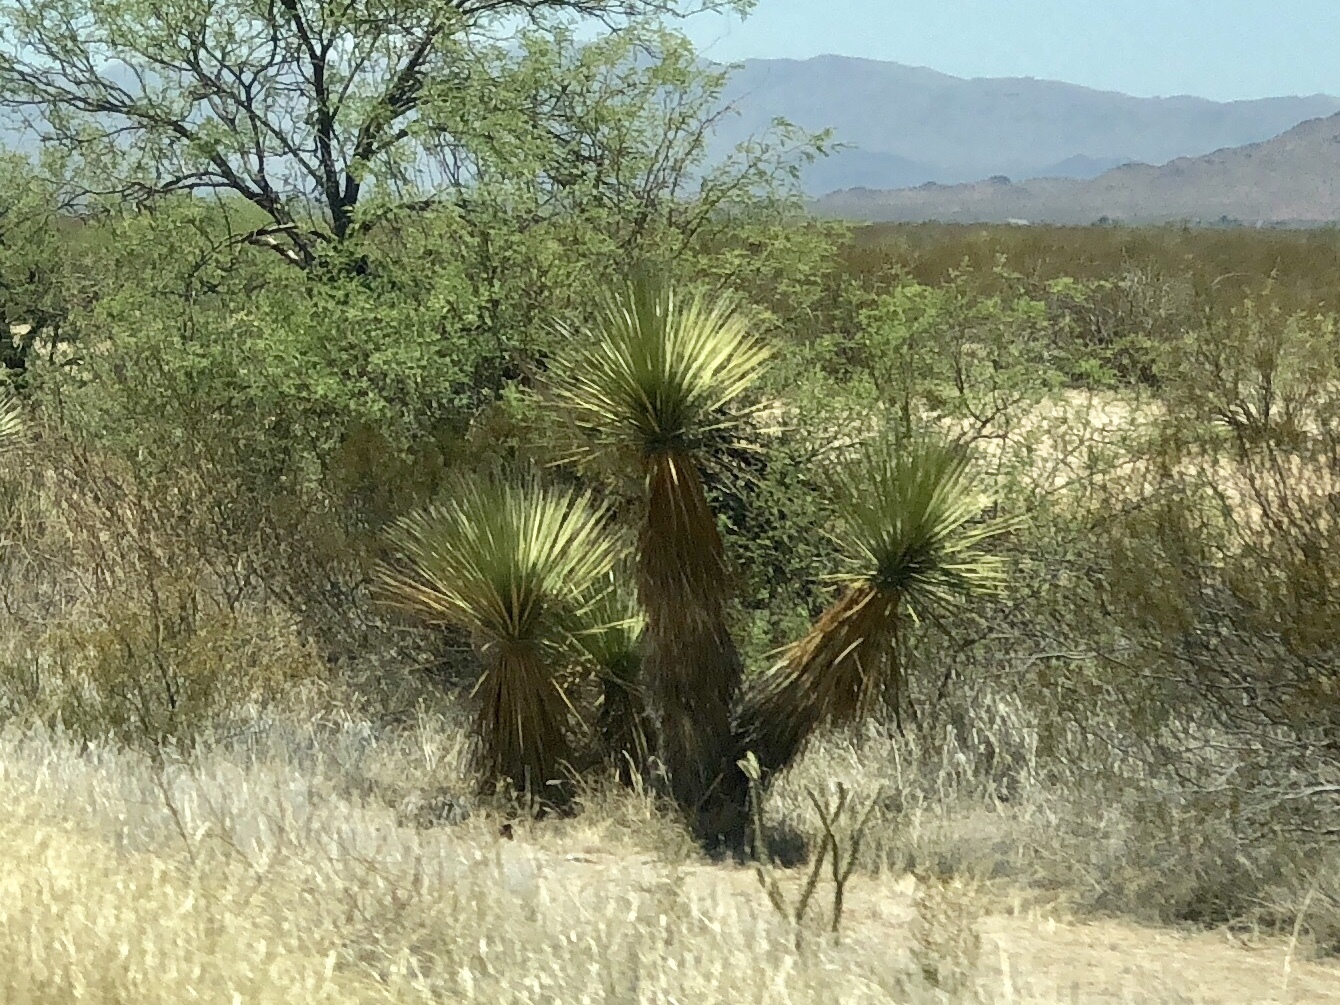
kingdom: Plantae
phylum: Tracheophyta
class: Liliopsida
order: Asparagales
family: Asparagaceae
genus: Yucca
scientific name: Yucca elata
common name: Palmella
